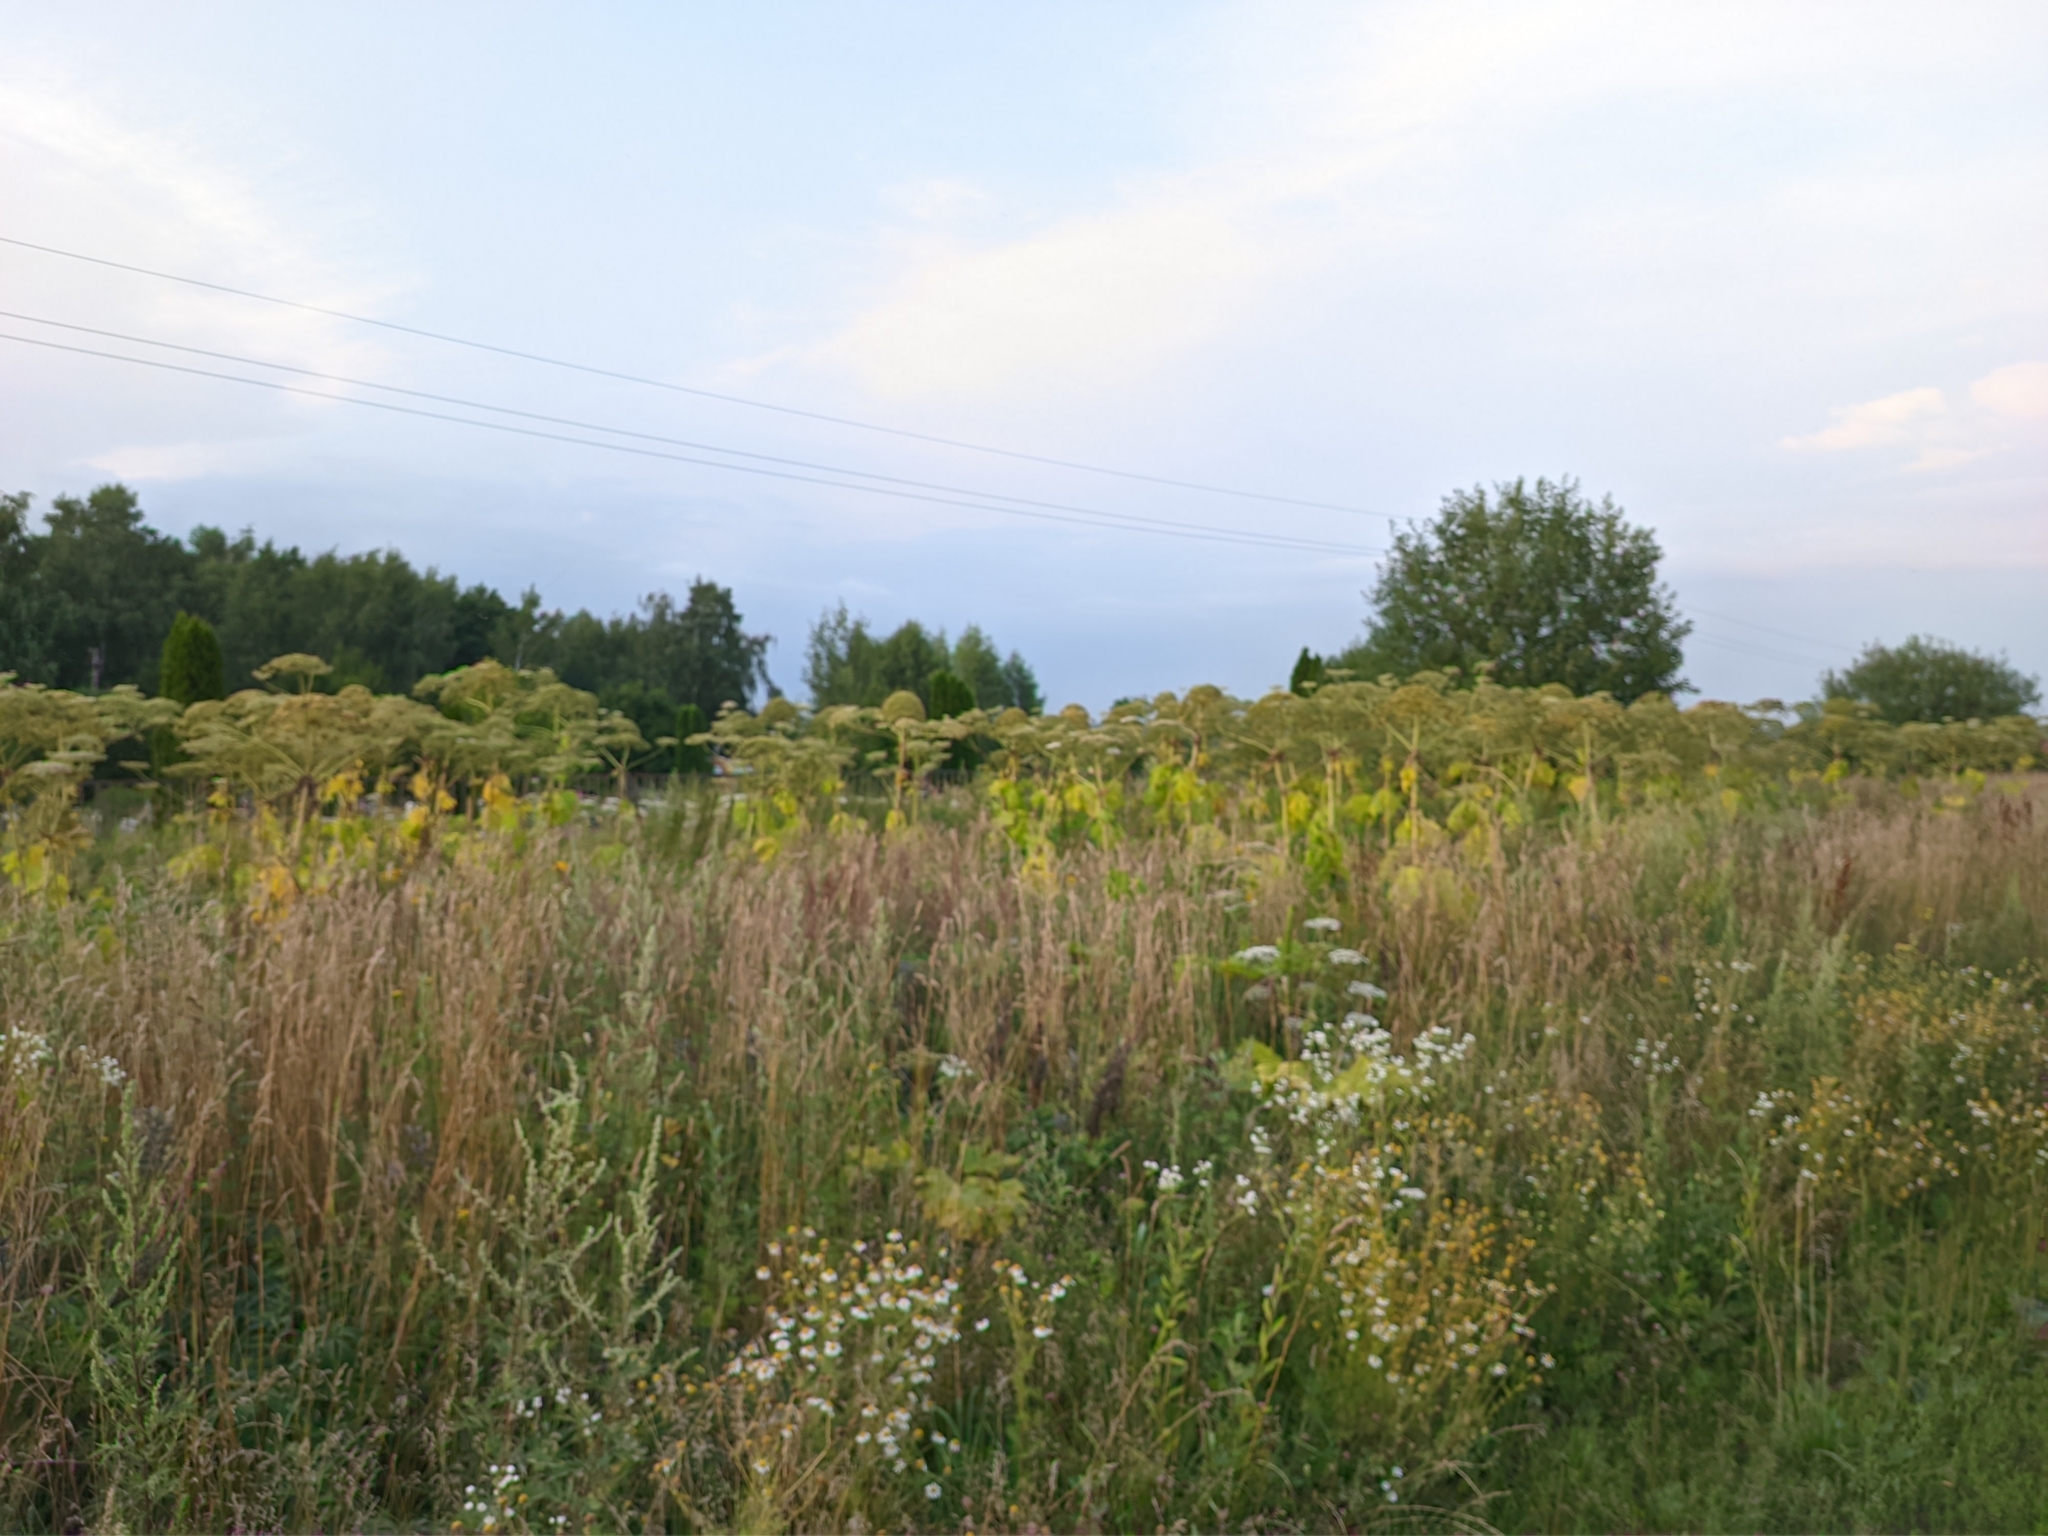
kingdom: Plantae
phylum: Tracheophyta
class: Magnoliopsida
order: Apiales
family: Apiaceae
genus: Heracleum
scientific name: Heracleum sosnowskyi
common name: Sosnowsky's hogweed
